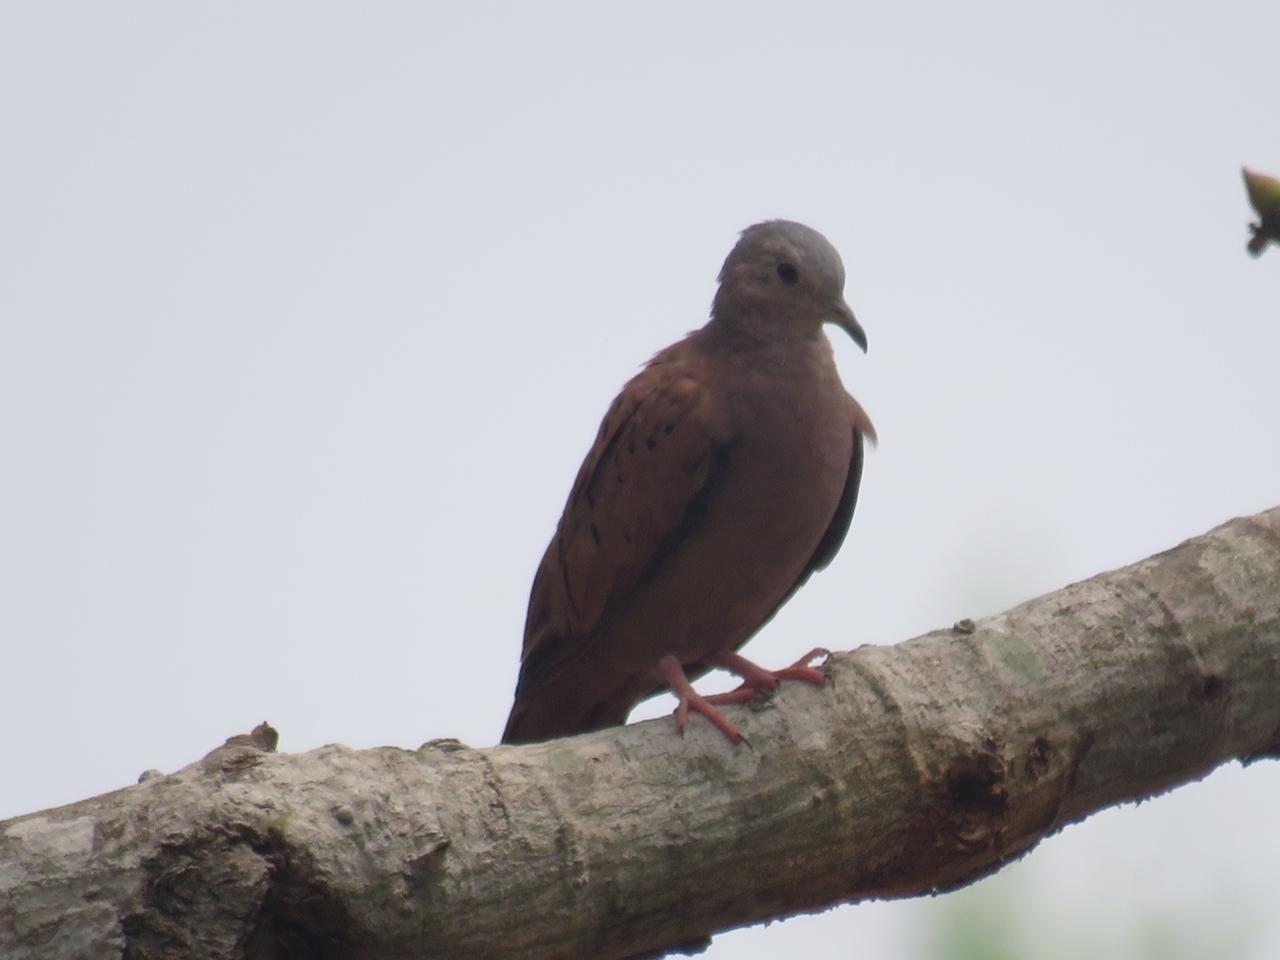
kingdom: Animalia
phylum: Chordata
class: Aves
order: Columbiformes
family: Columbidae
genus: Columbina
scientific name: Columbina talpacoti
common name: Ruddy ground dove
